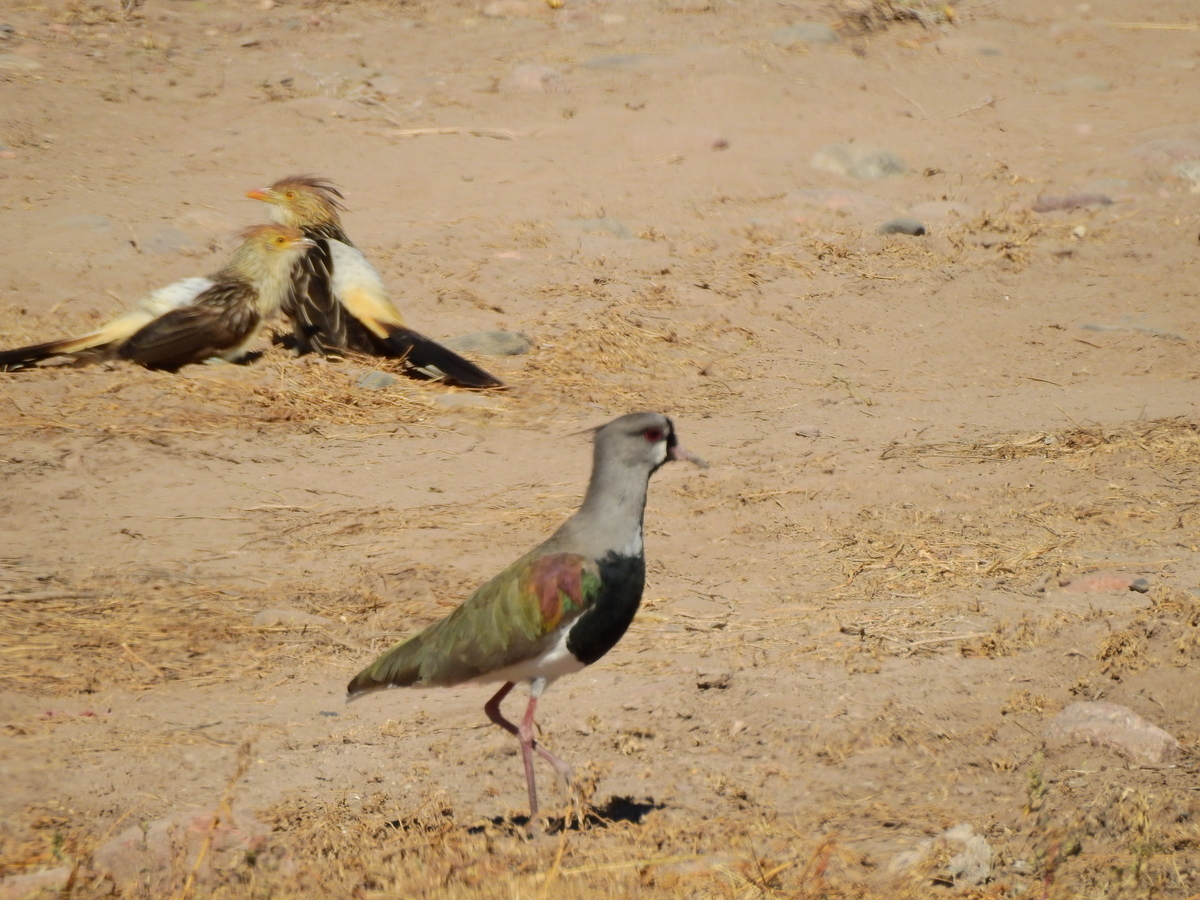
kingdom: Animalia
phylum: Chordata
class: Aves
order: Charadriiformes
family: Charadriidae
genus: Vanellus
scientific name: Vanellus chilensis
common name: Southern lapwing
